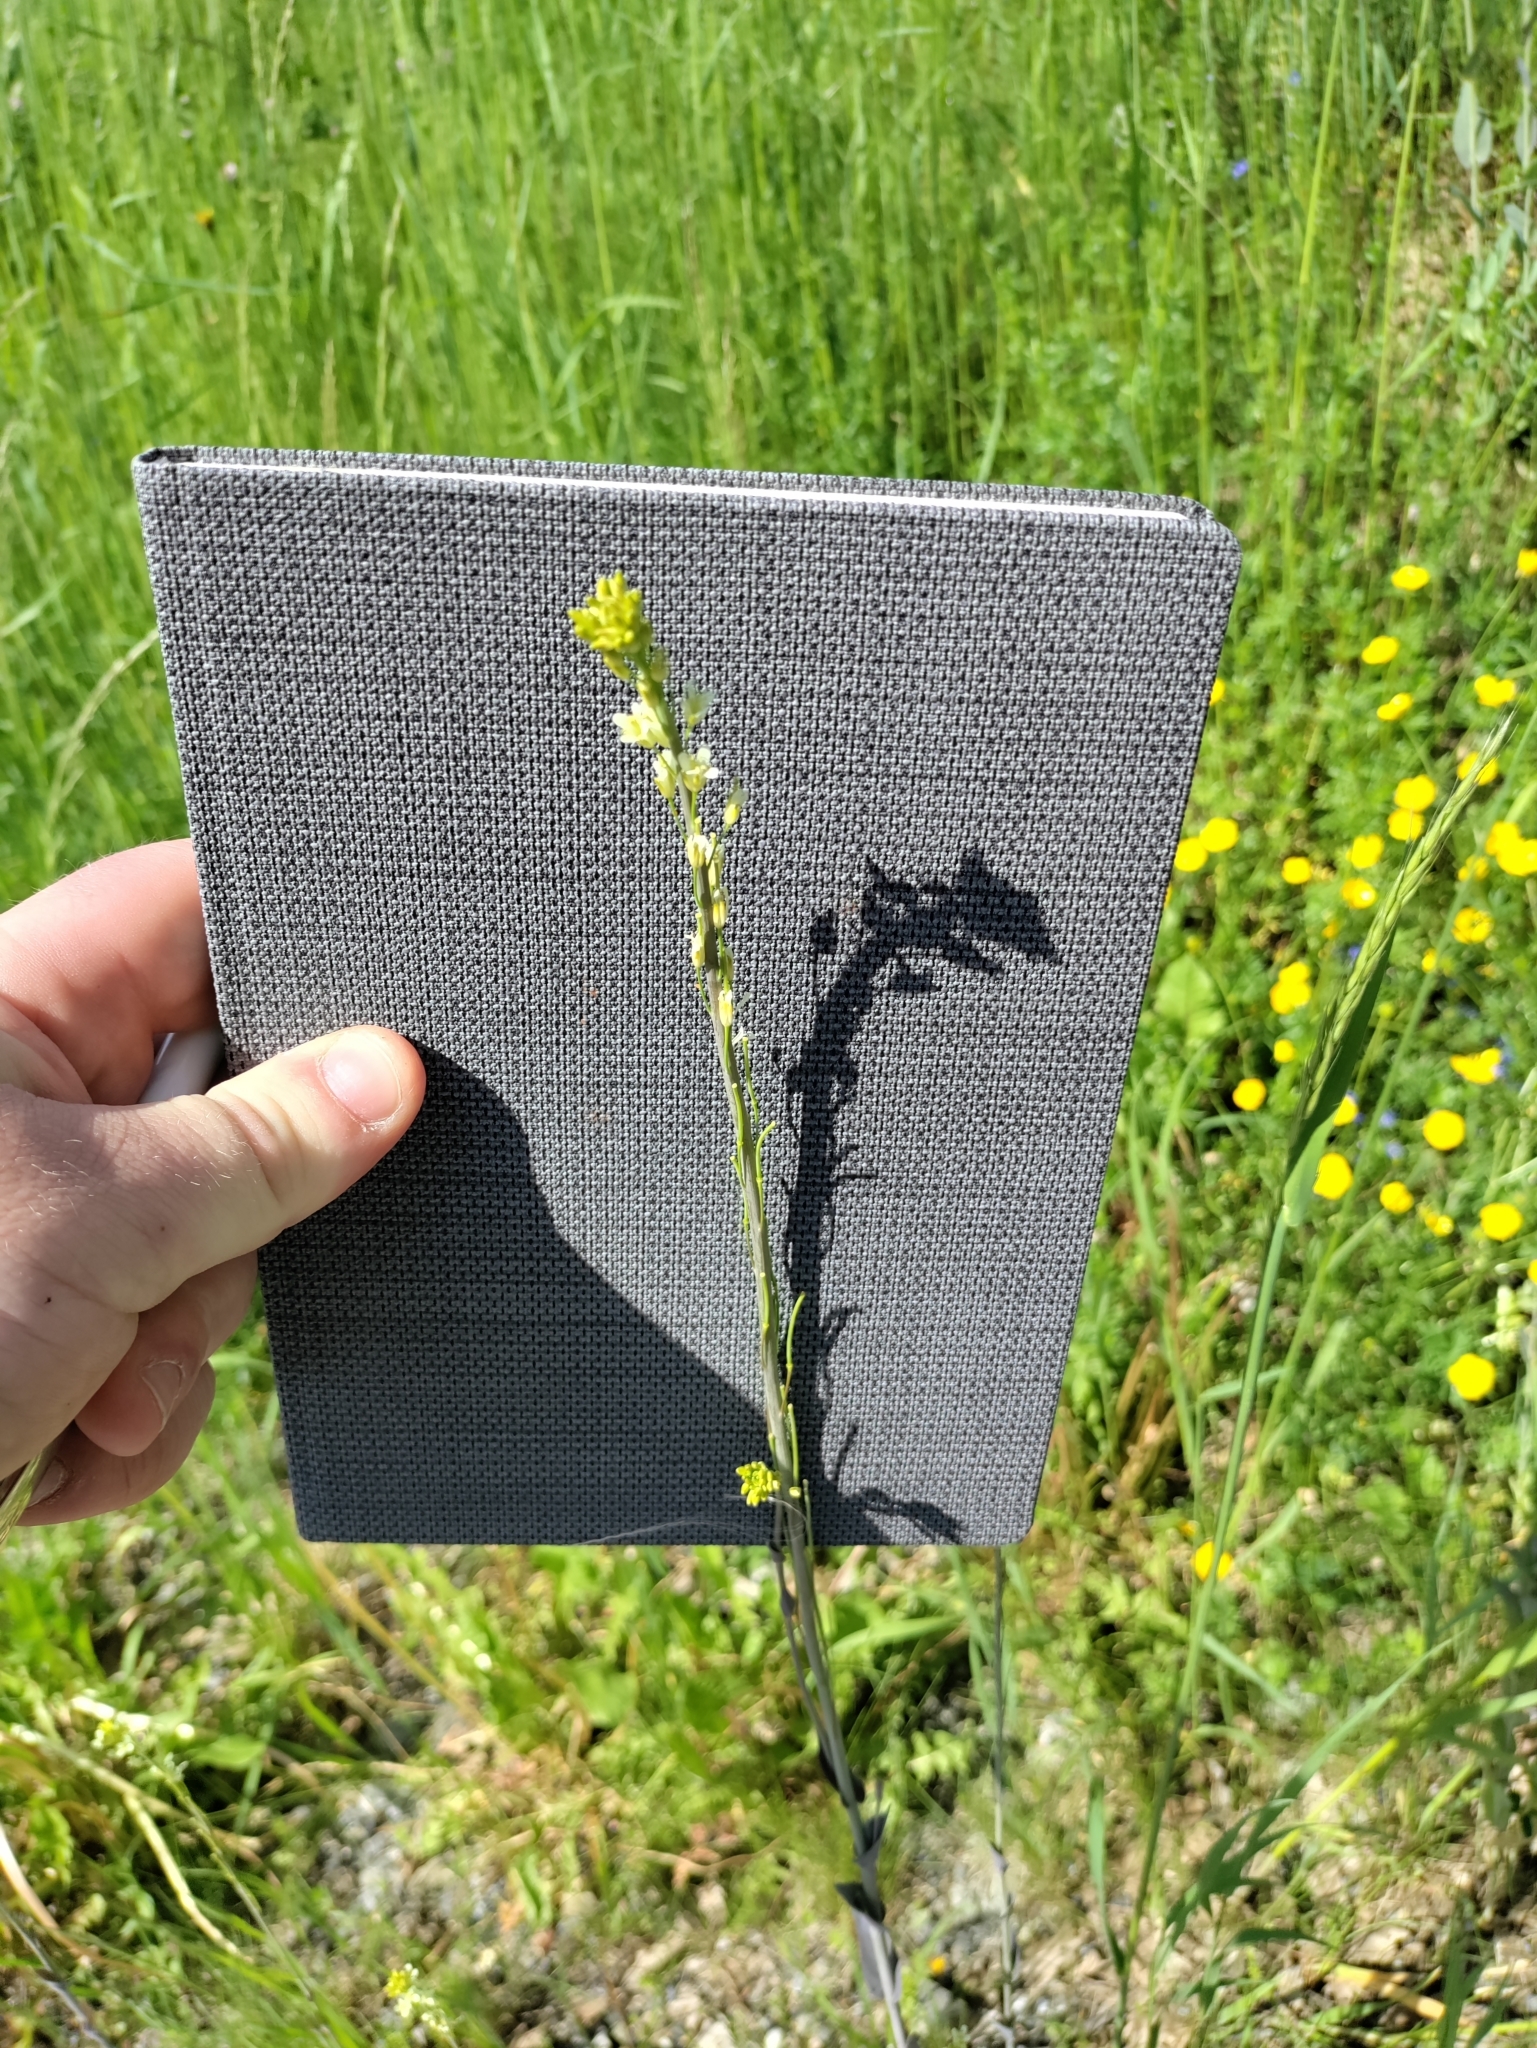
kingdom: Plantae
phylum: Tracheophyta
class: Magnoliopsida
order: Brassicales
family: Brassicaceae
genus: Turritis
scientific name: Turritis glabra
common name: Tower rockcress
